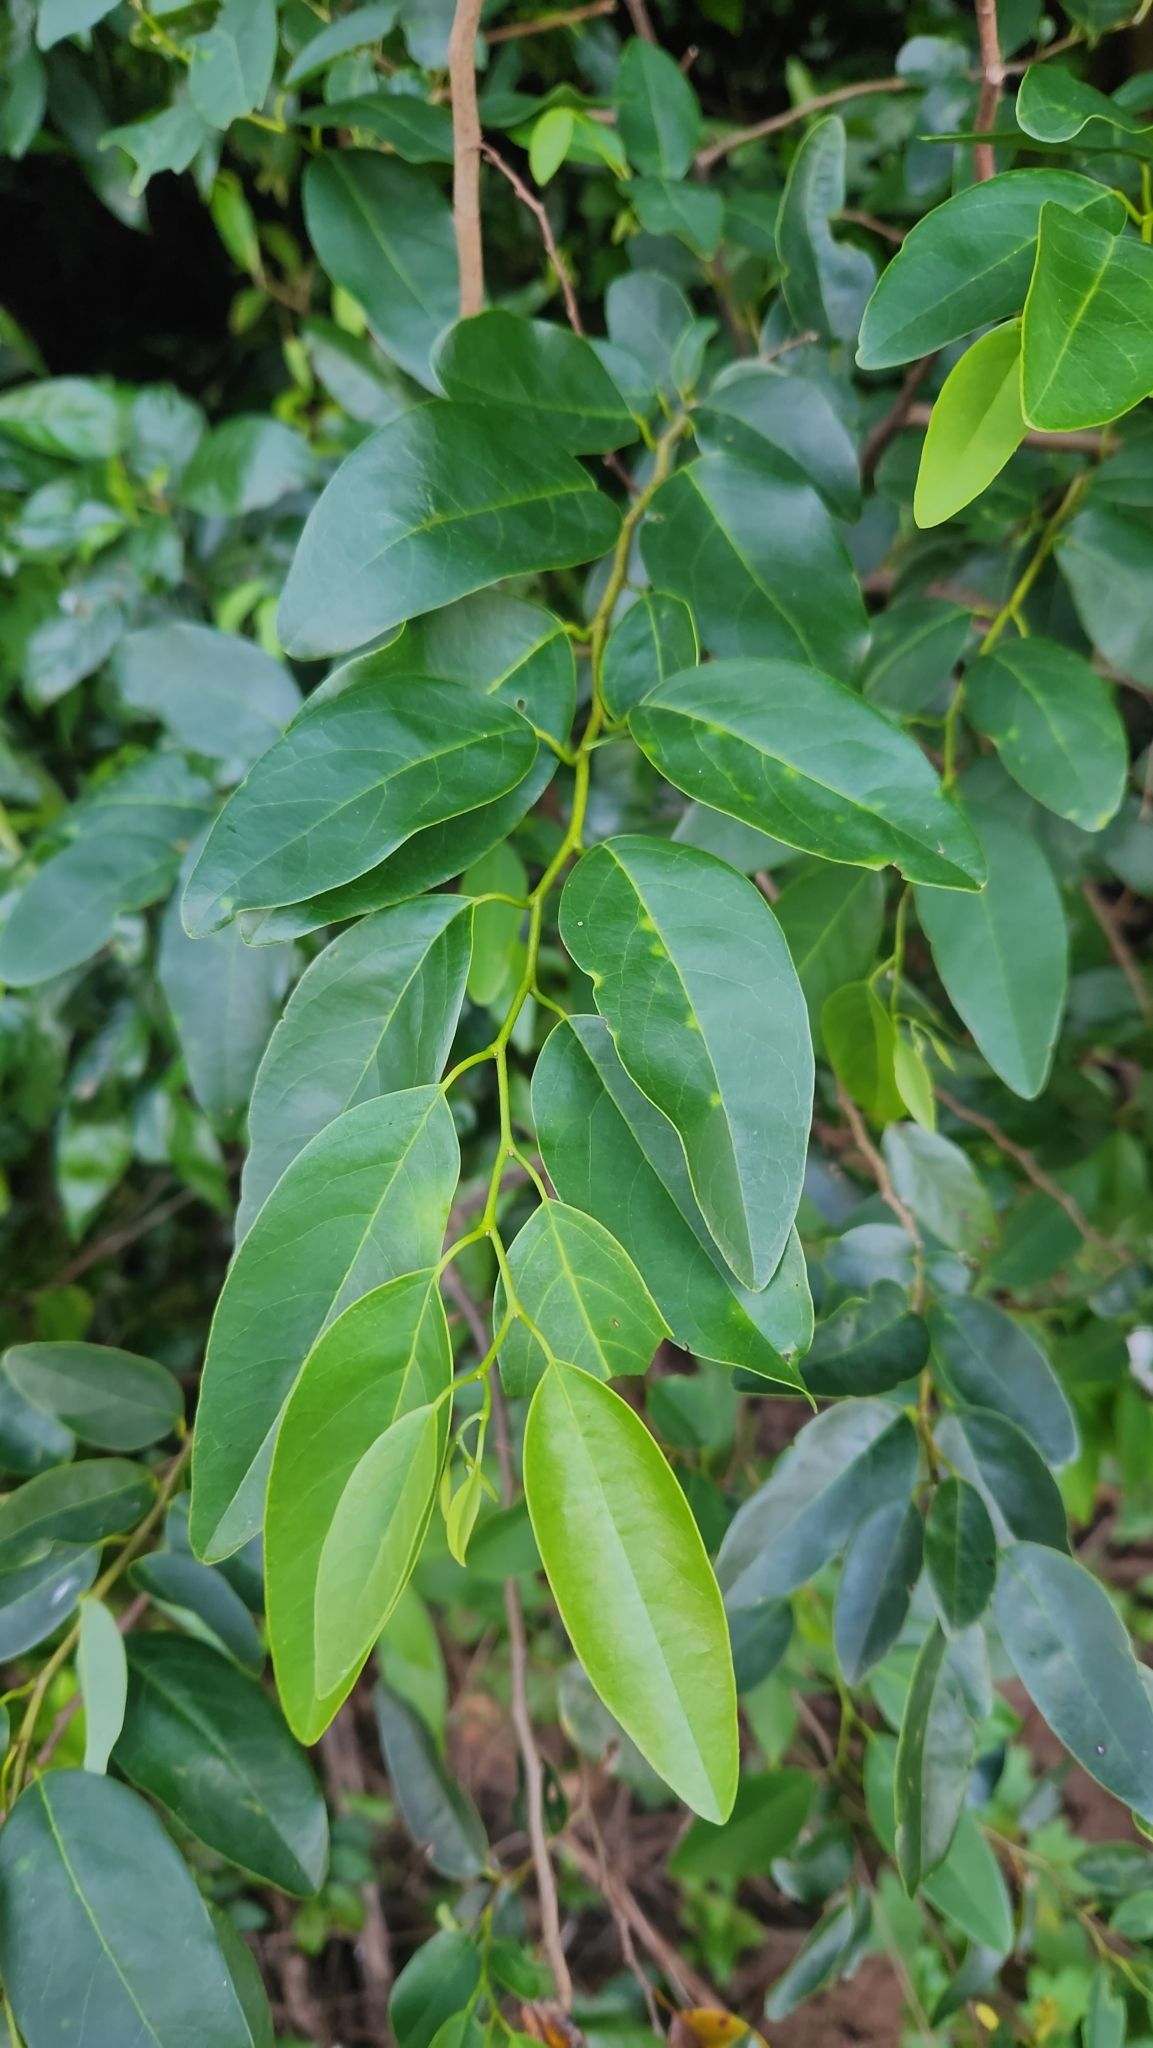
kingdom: Plantae
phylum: Tracheophyta
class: Magnoliopsida
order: Magnoliales
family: Annonaceae
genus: Annona
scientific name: Annona emarginata
